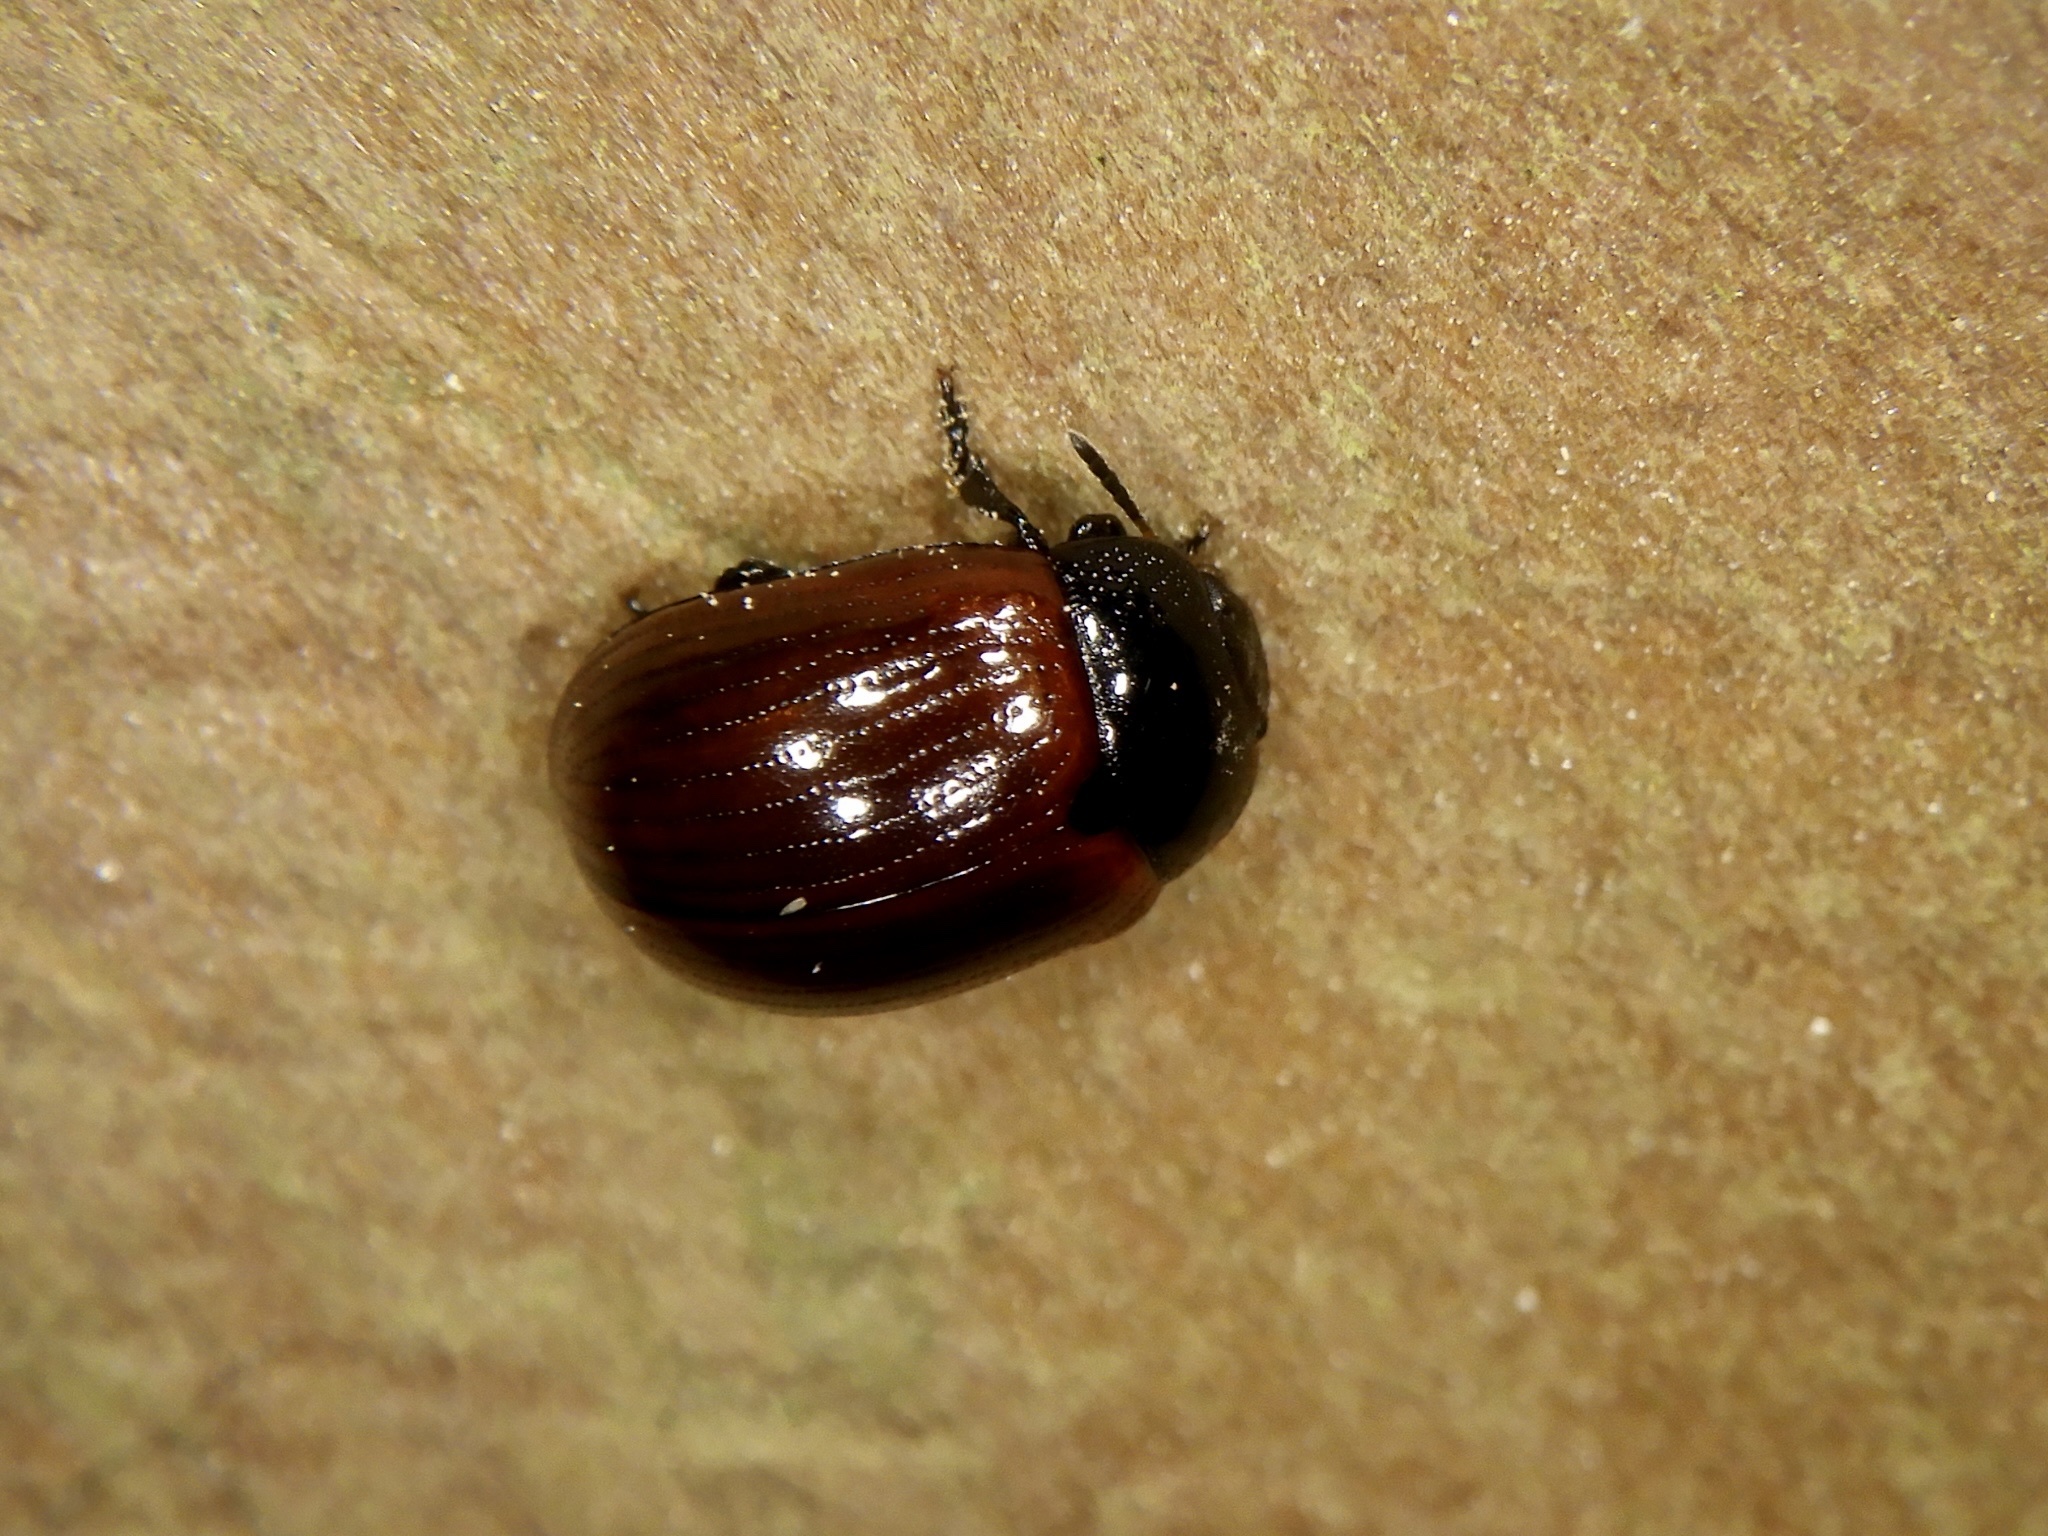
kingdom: Animalia
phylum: Arthropoda
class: Insecta
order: Coleoptera
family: Chrysomelidae
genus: Gonioctena
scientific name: Gonioctena
